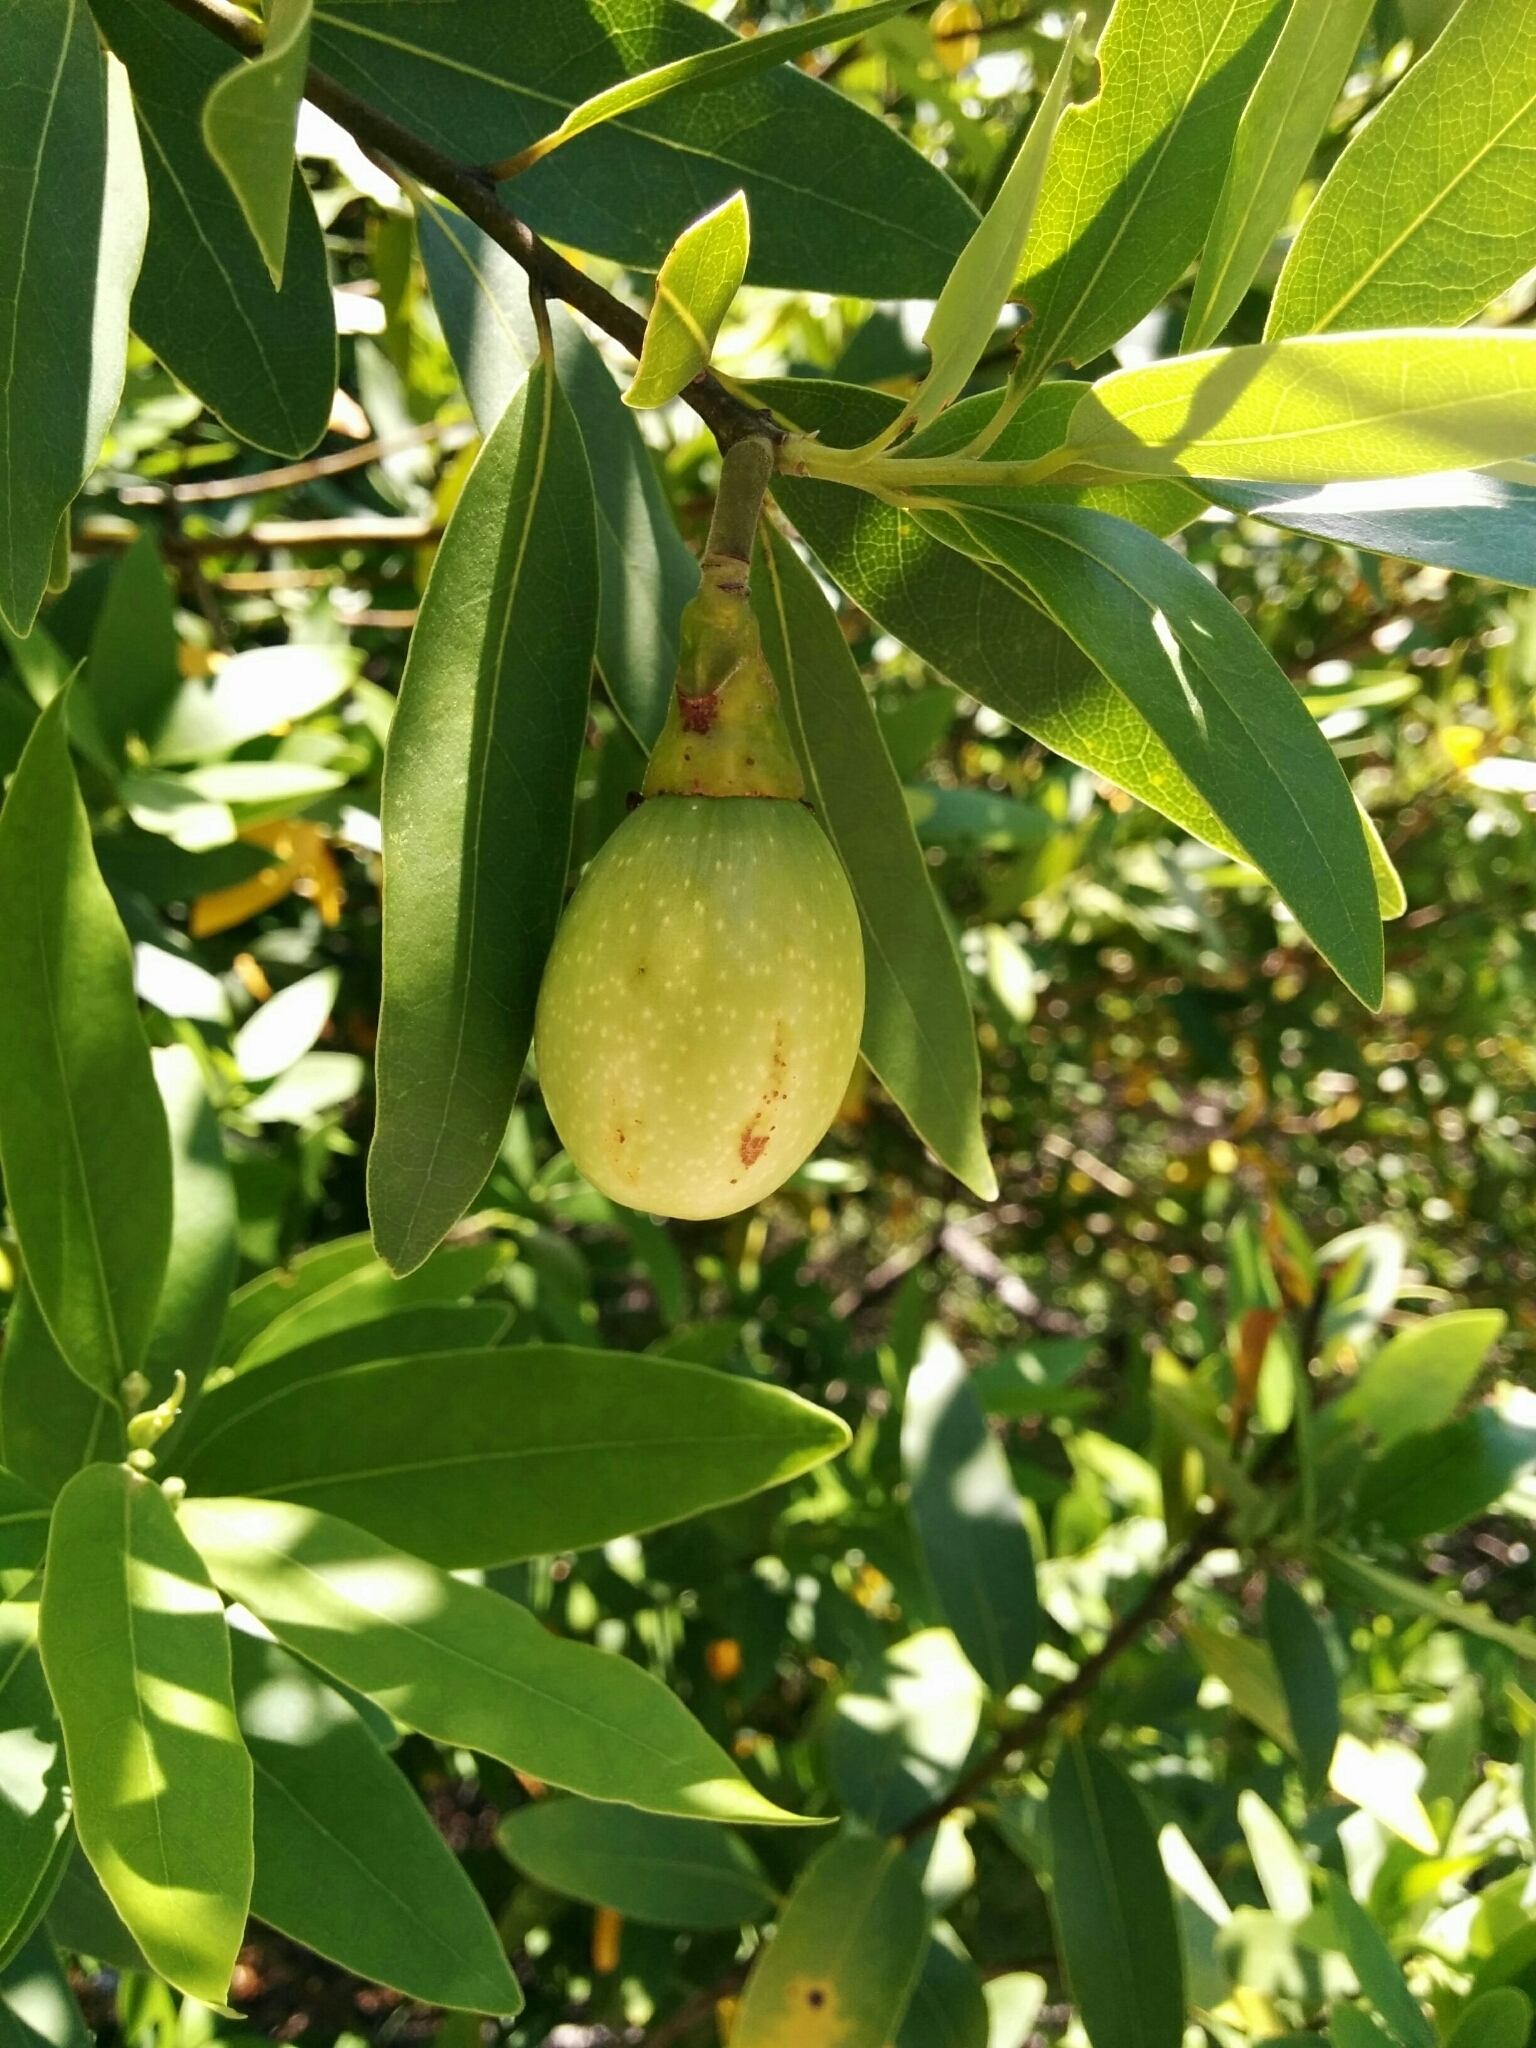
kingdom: Plantae
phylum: Tracheophyta
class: Magnoliopsida
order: Laurales
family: Lauraceae
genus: Umbellularia
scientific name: Umbellularia californica
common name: California bay
